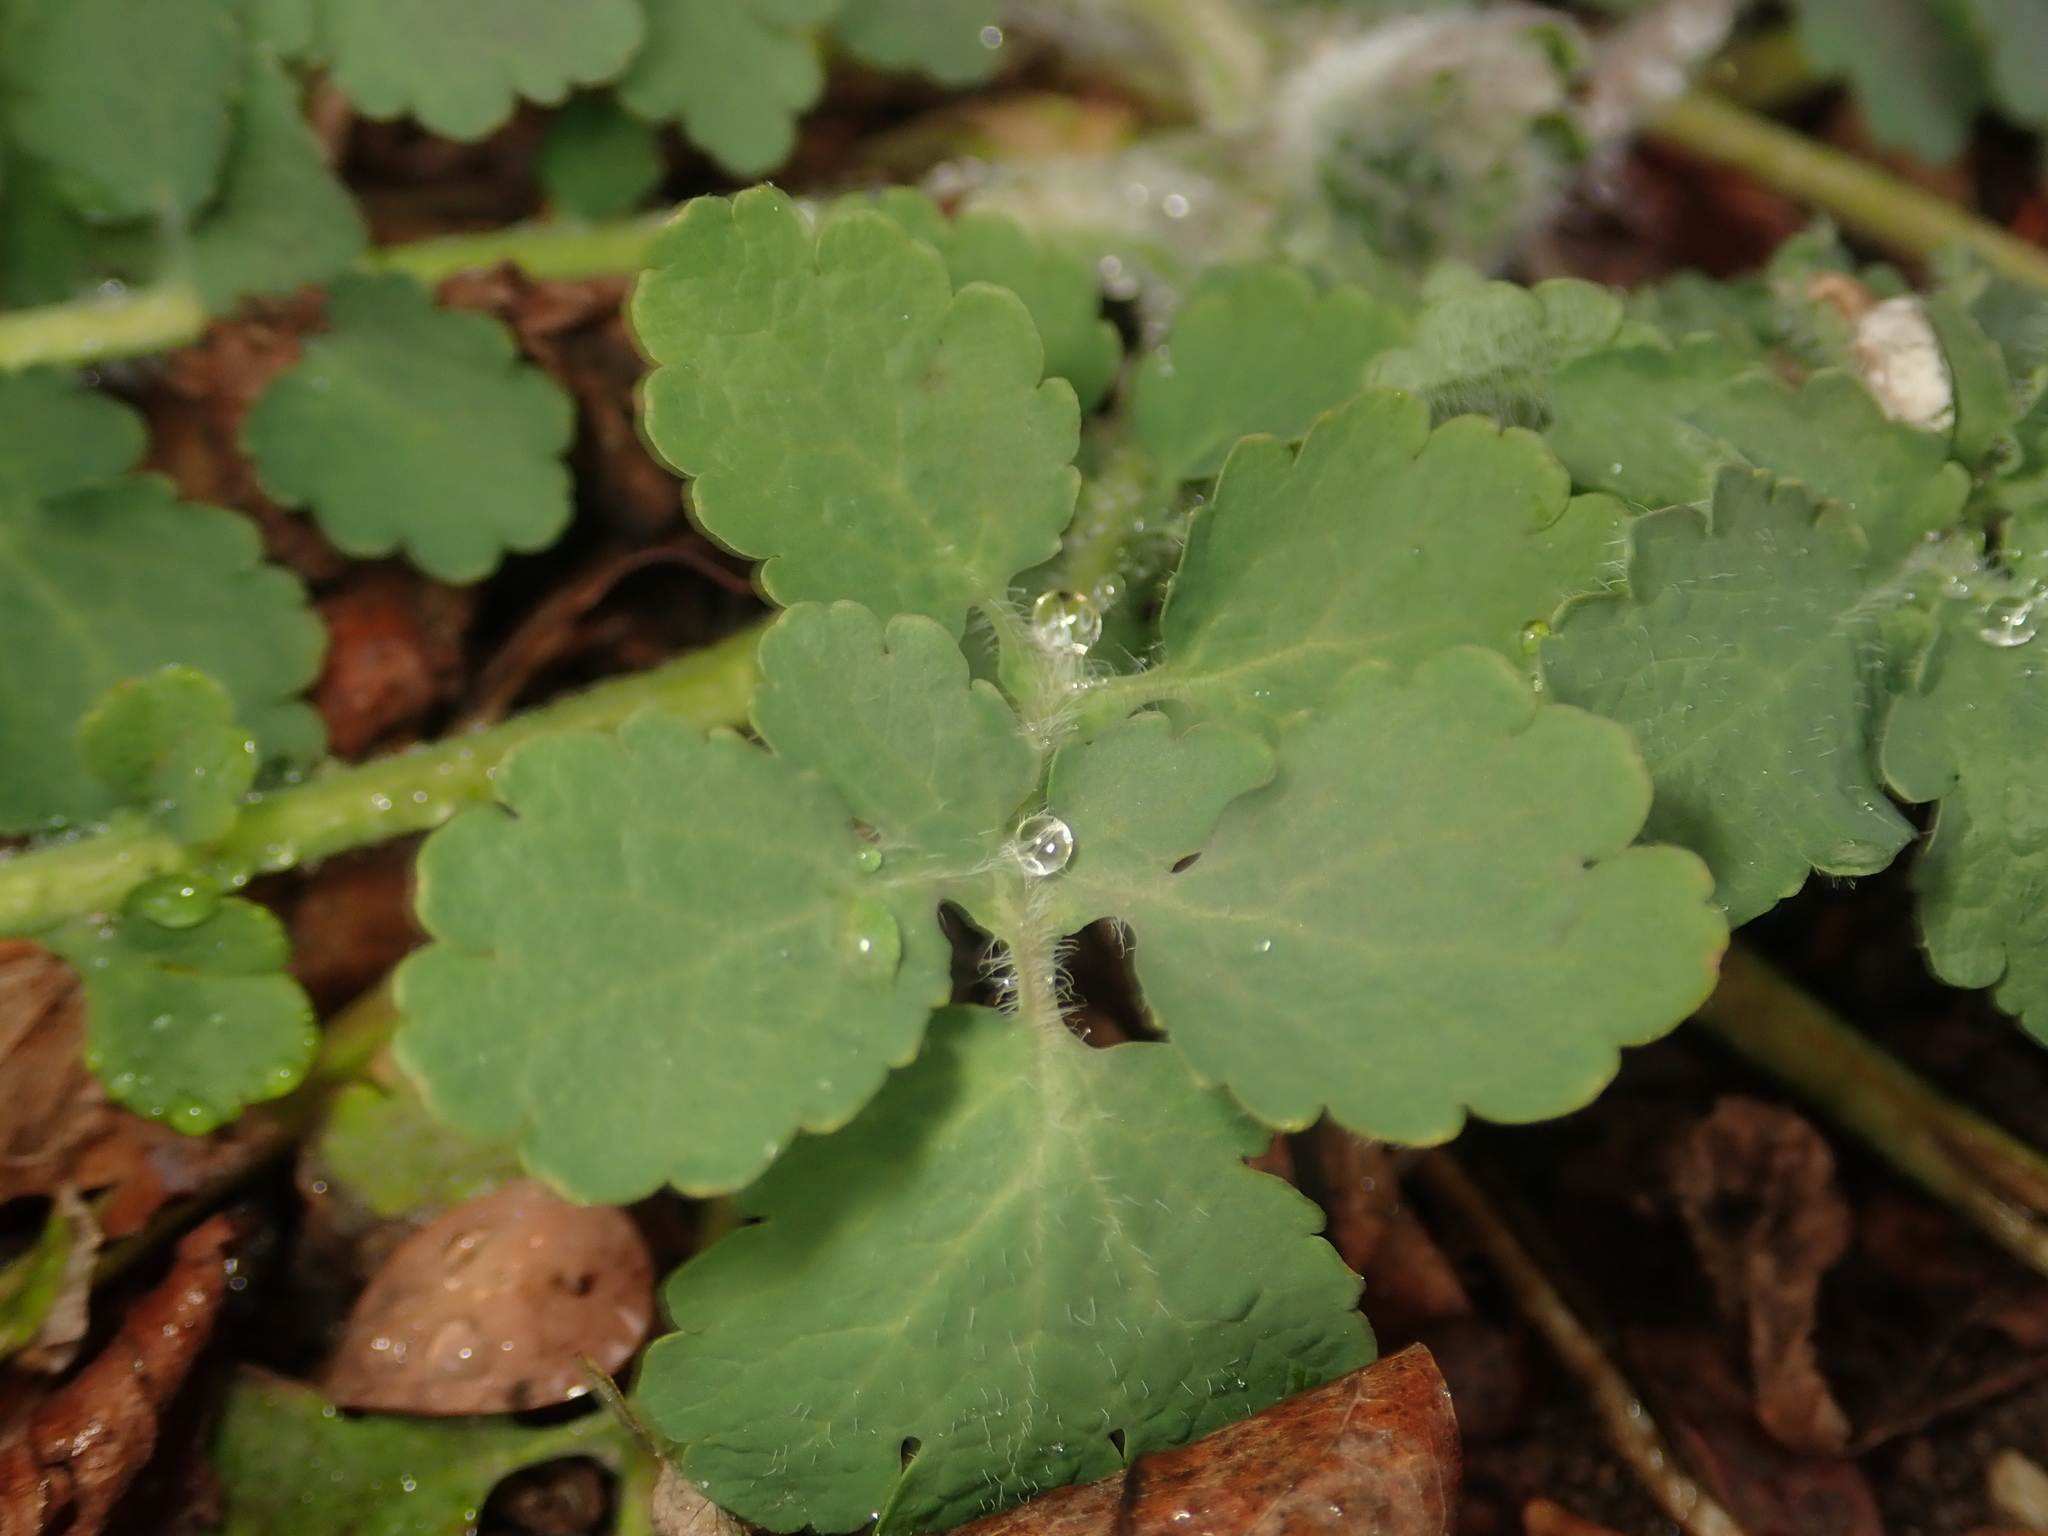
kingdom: Plantae
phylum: Tracheophyta
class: Magnoliopsida
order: Ranunculales
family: Papaveraceae
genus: Chelidonium
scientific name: Chelidonium majus
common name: Greater celandine
